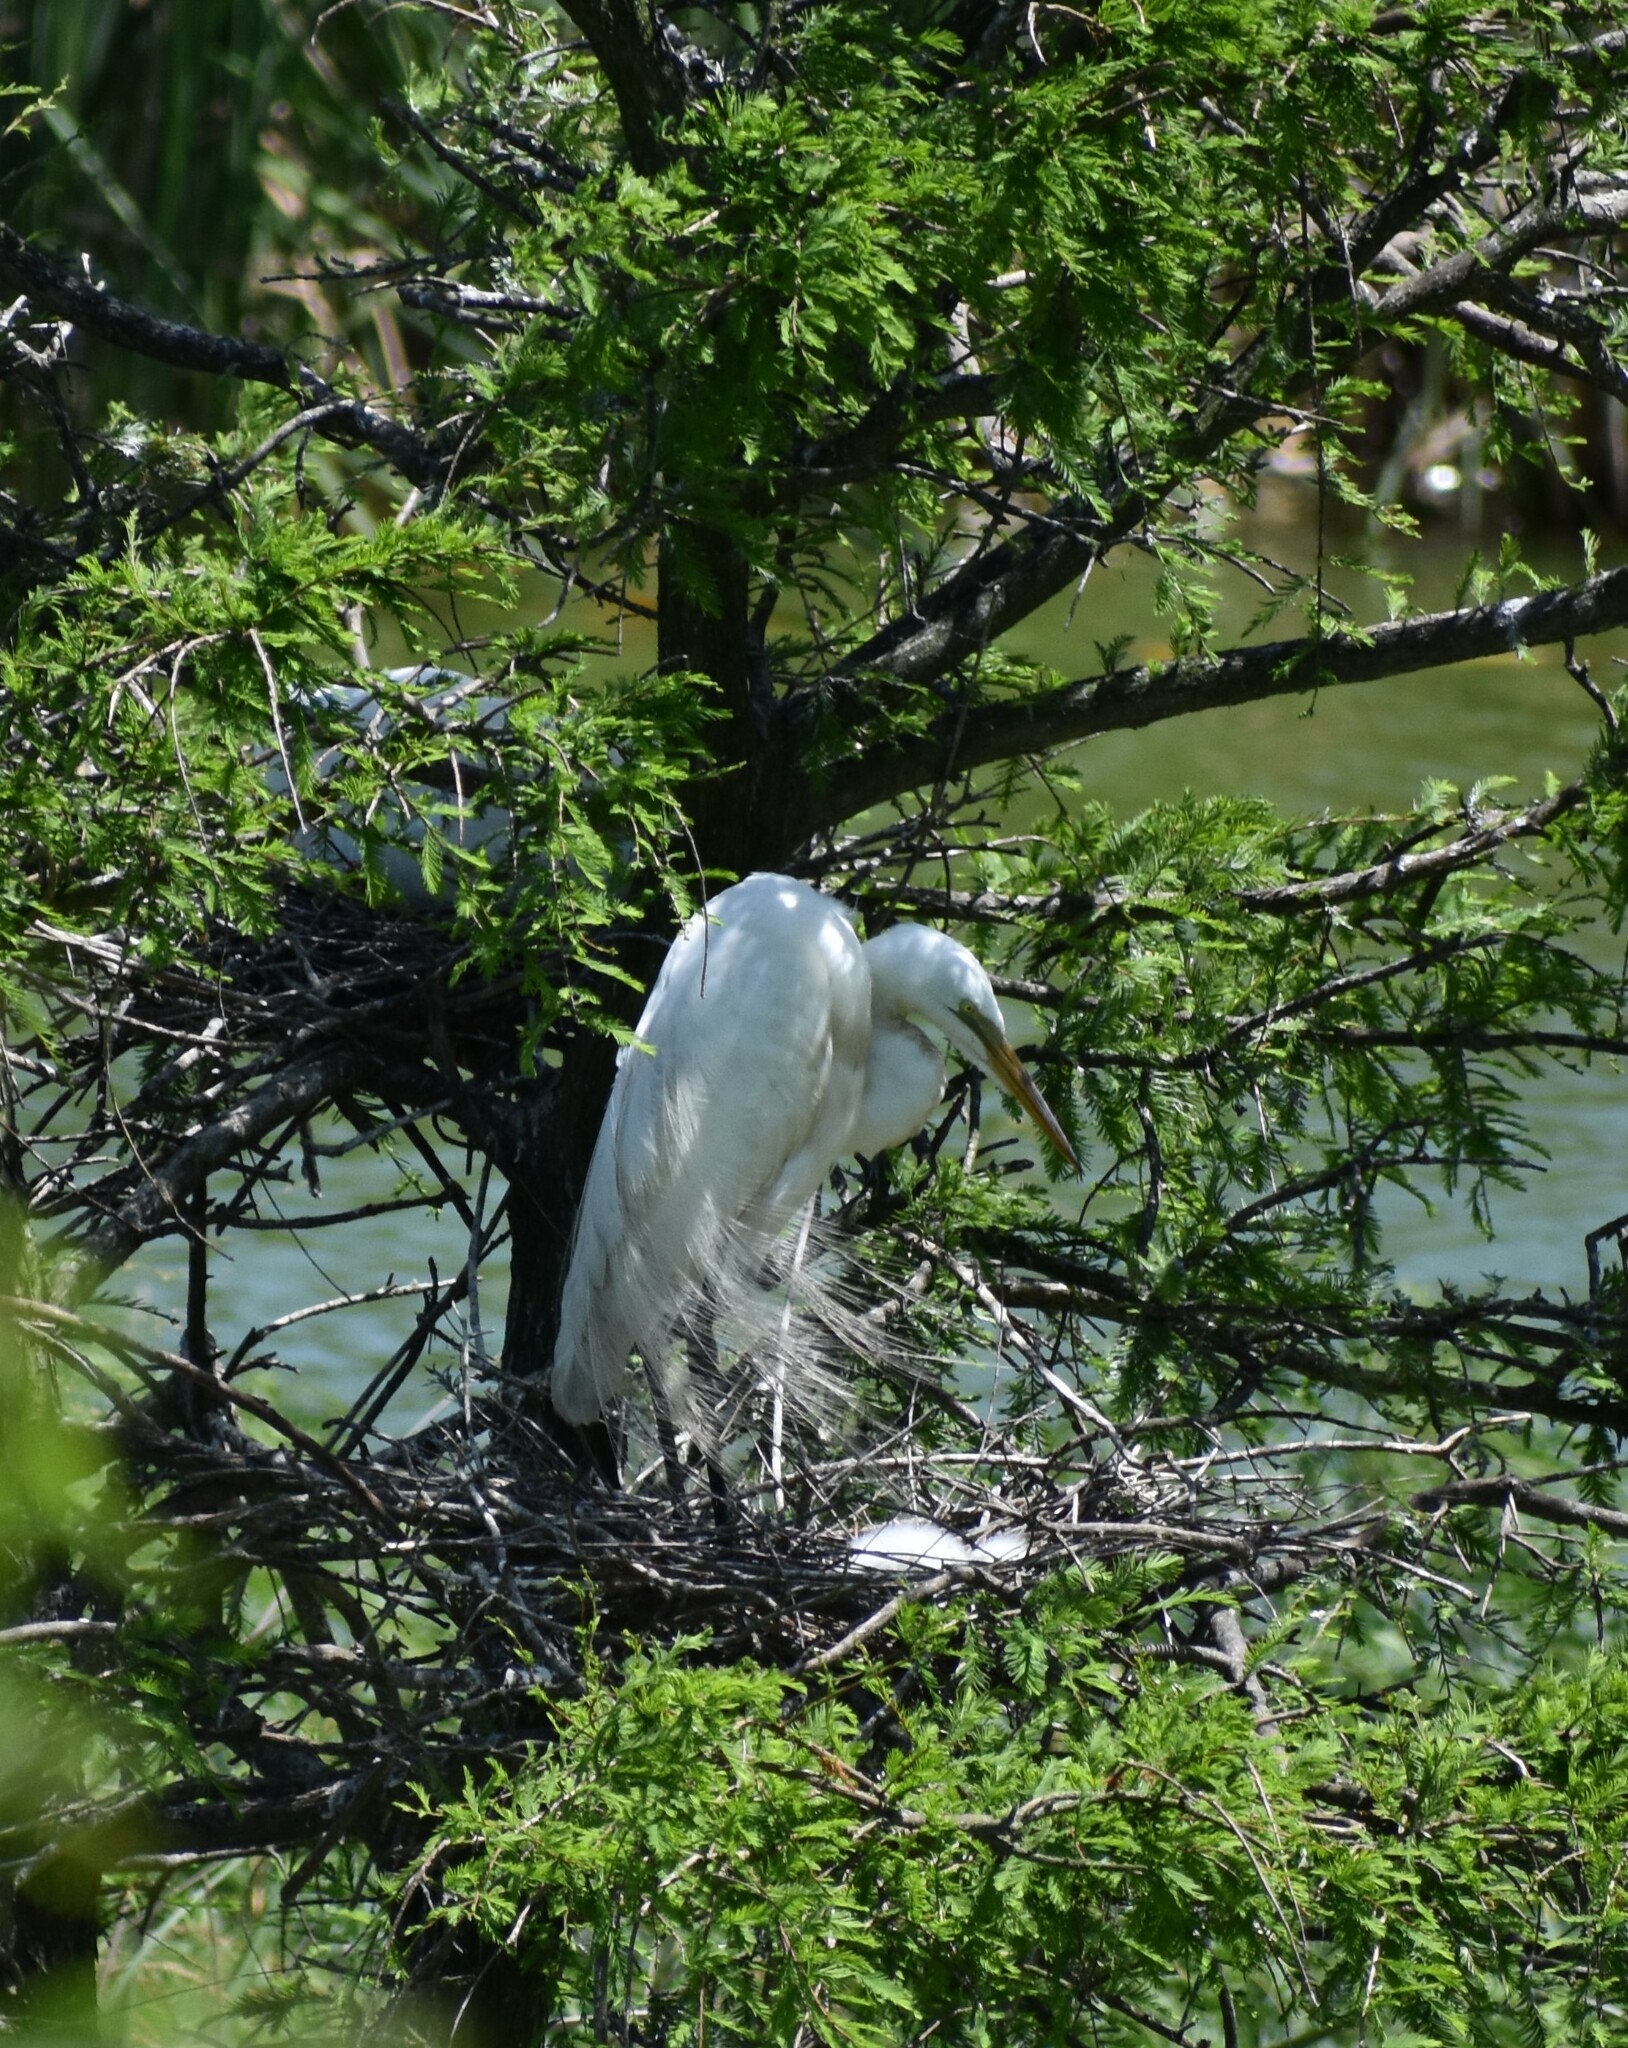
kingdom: Animalia
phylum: Chordata
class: Aves
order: Pelecaniformes
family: Ardeidae
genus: Ardea
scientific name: Ardea alba
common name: Great egret
